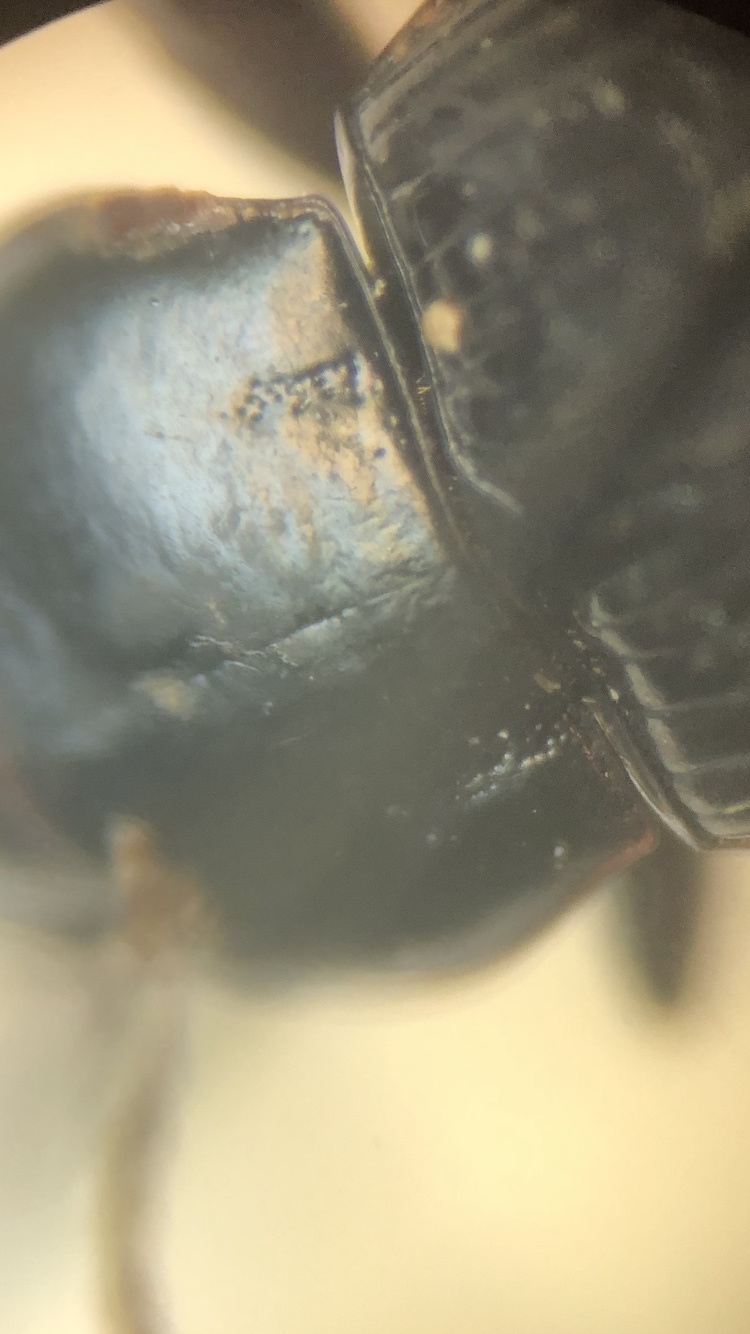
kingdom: Animalia
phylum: Arthropoda
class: Insecta
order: Coleoptera
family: Carabidae
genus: Harpalus
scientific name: Harpalus attenuatus
